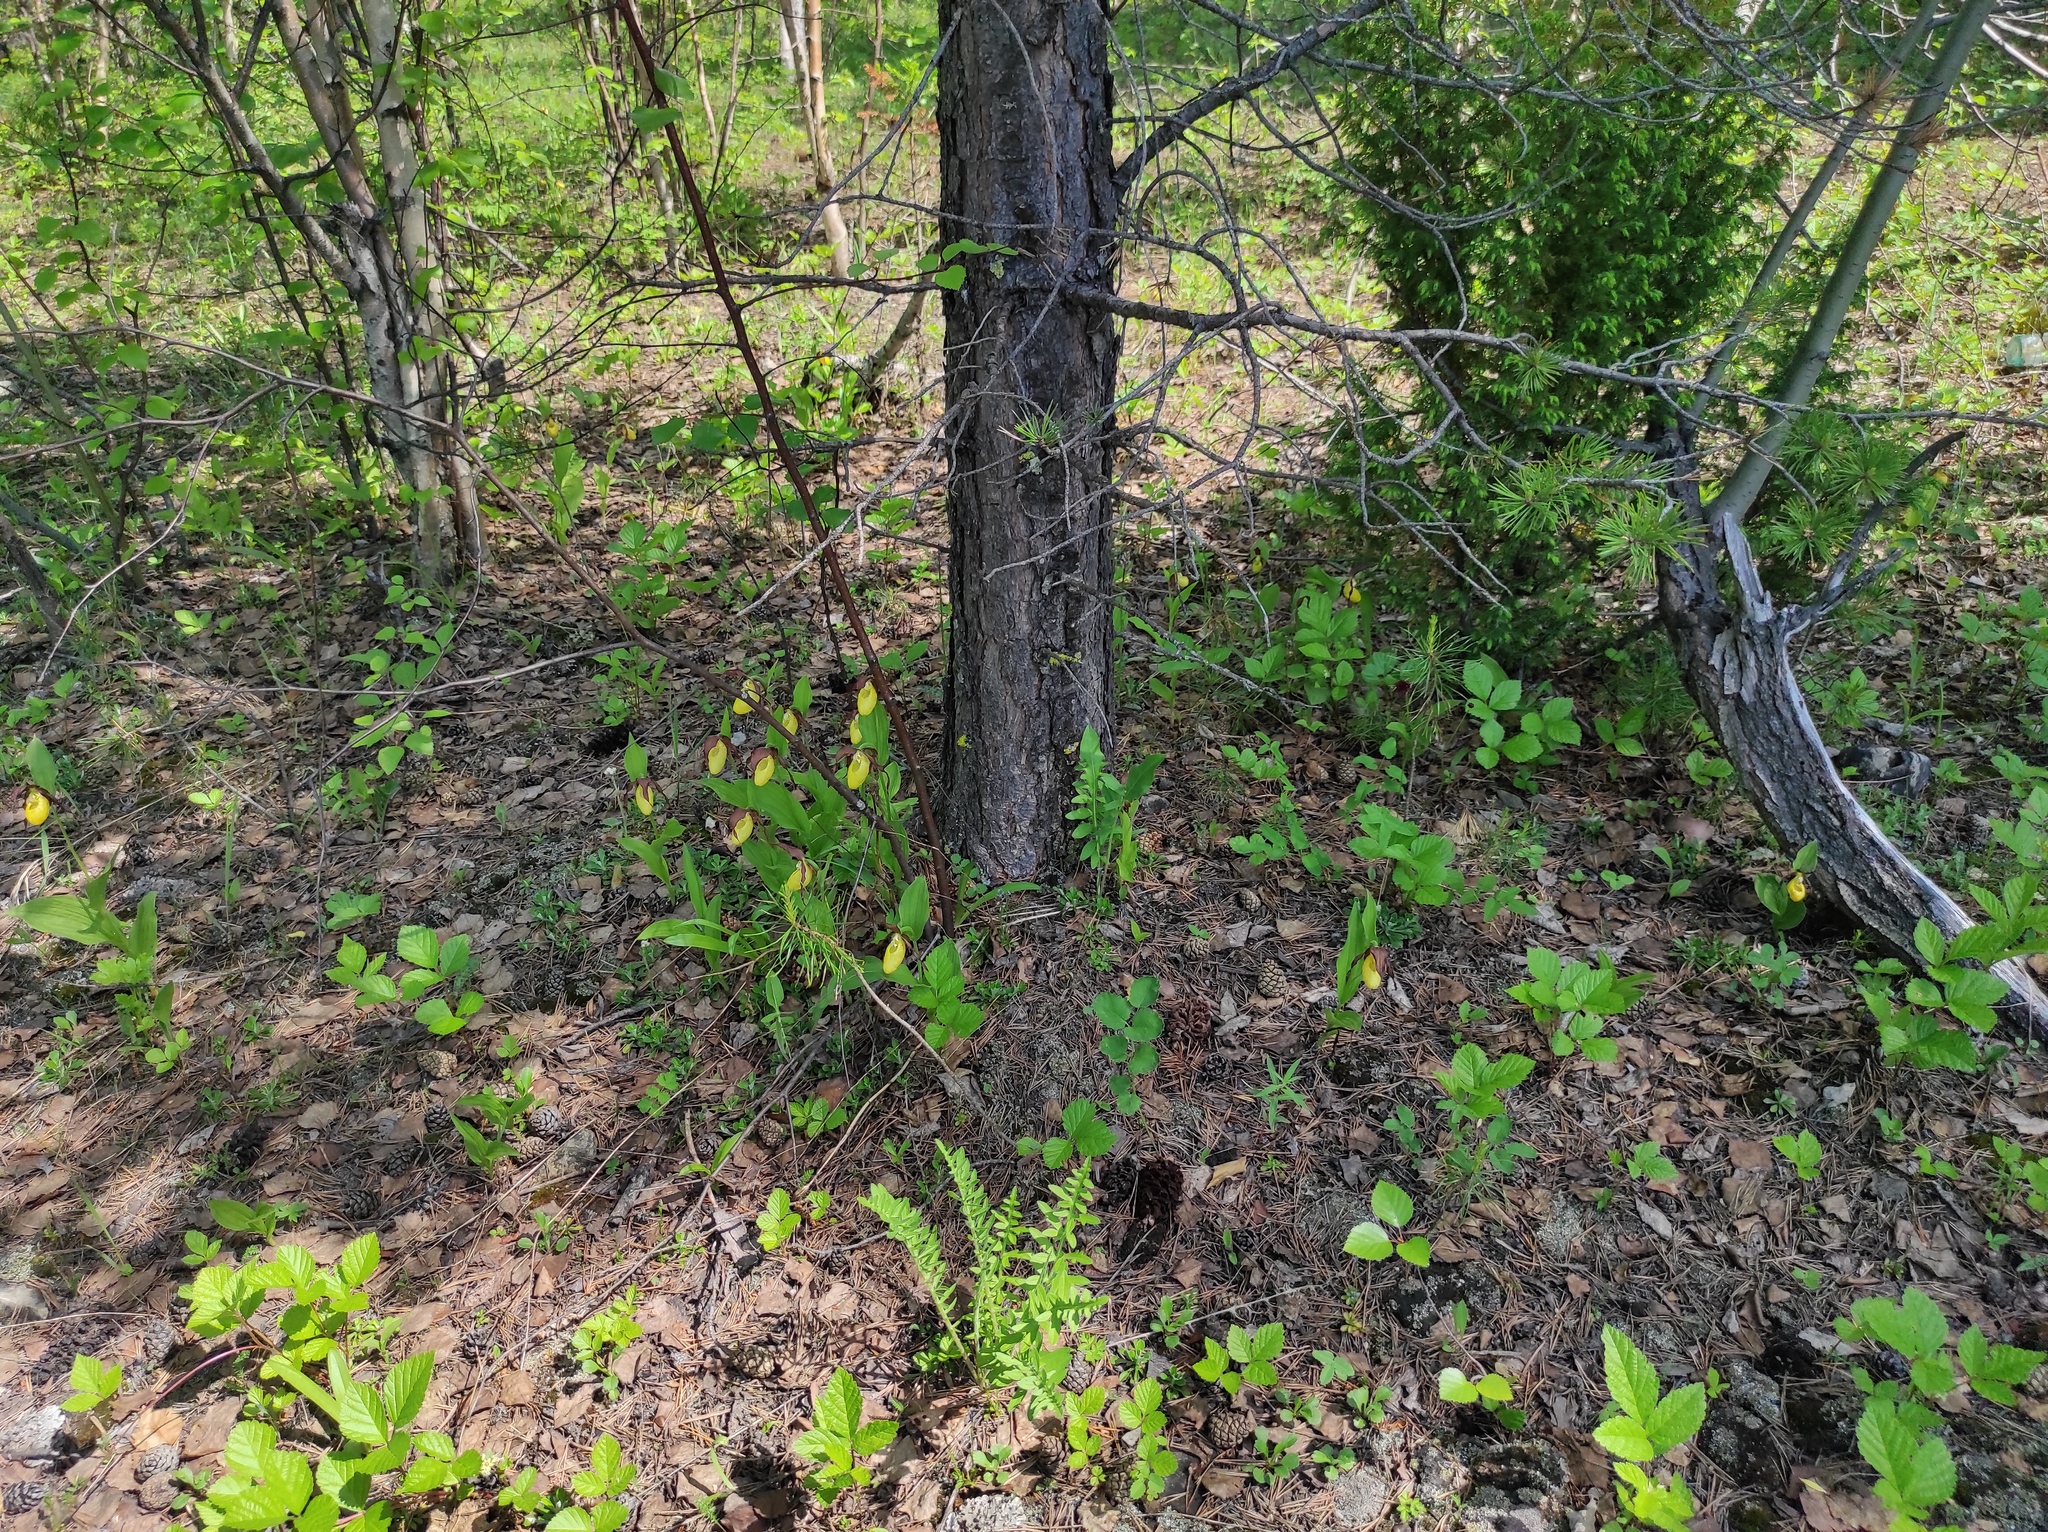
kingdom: Plantae
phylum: Tracheophyta
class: Pinopsida
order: Pinales
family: Pinaceae
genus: Pinus
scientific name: Pinus sylvestris
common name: Scots pine
